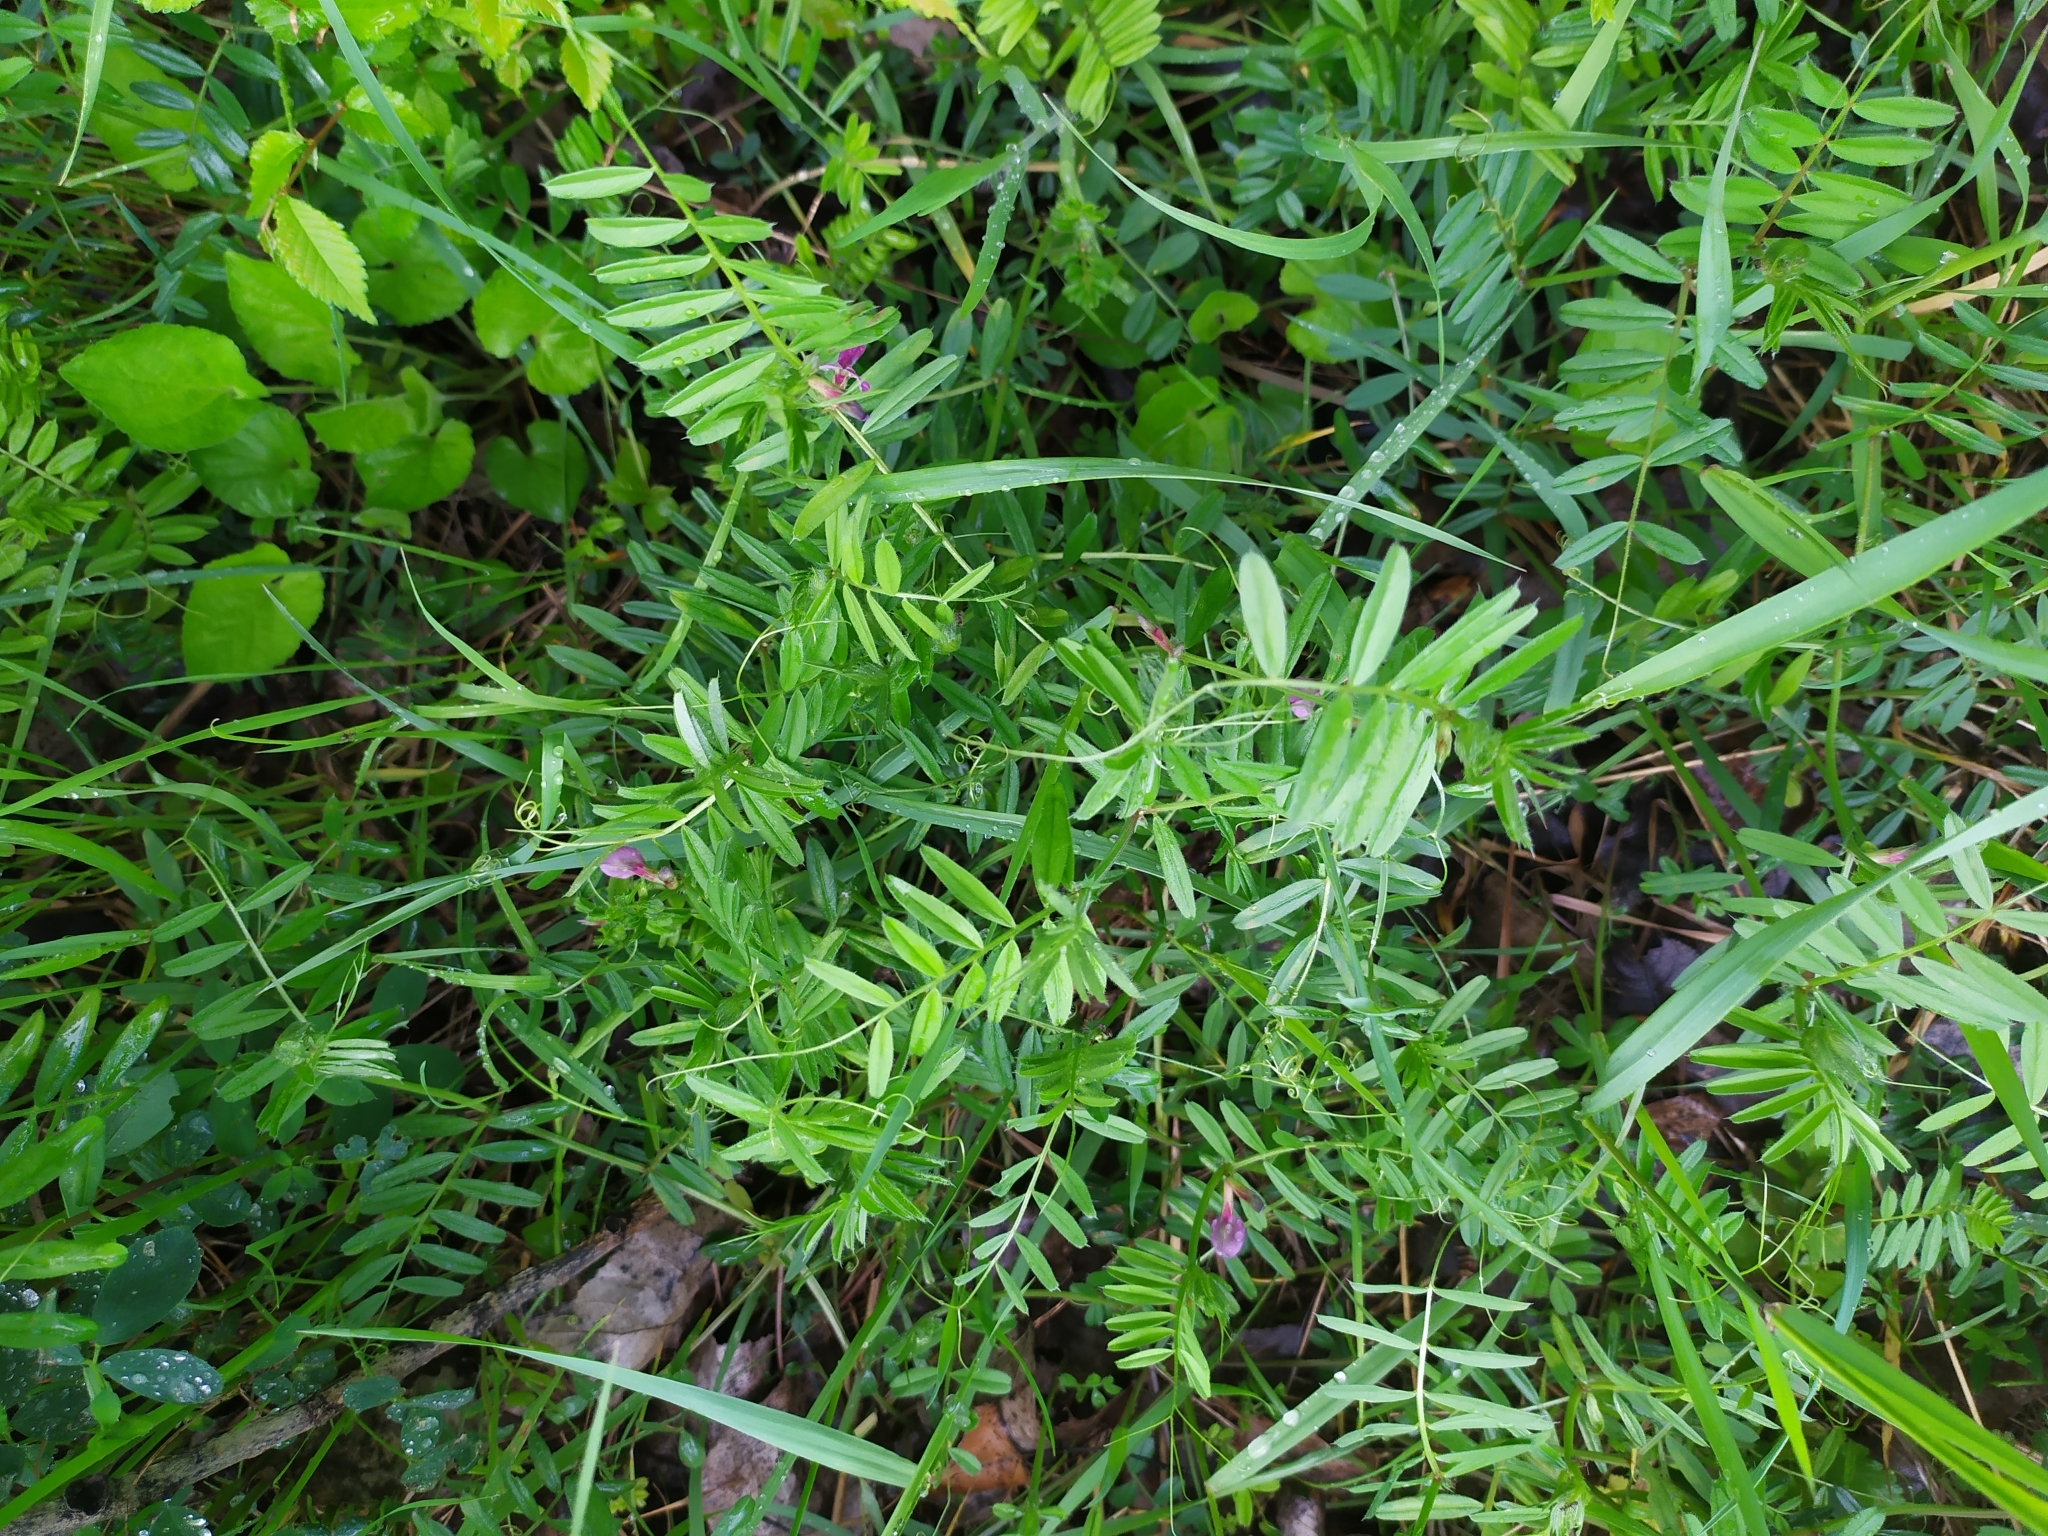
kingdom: Plantae
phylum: Tracheophyta
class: Magnoliopsida
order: Fabales
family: Fabaceae
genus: Vicia
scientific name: Vicia sativa
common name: Garden vetch
